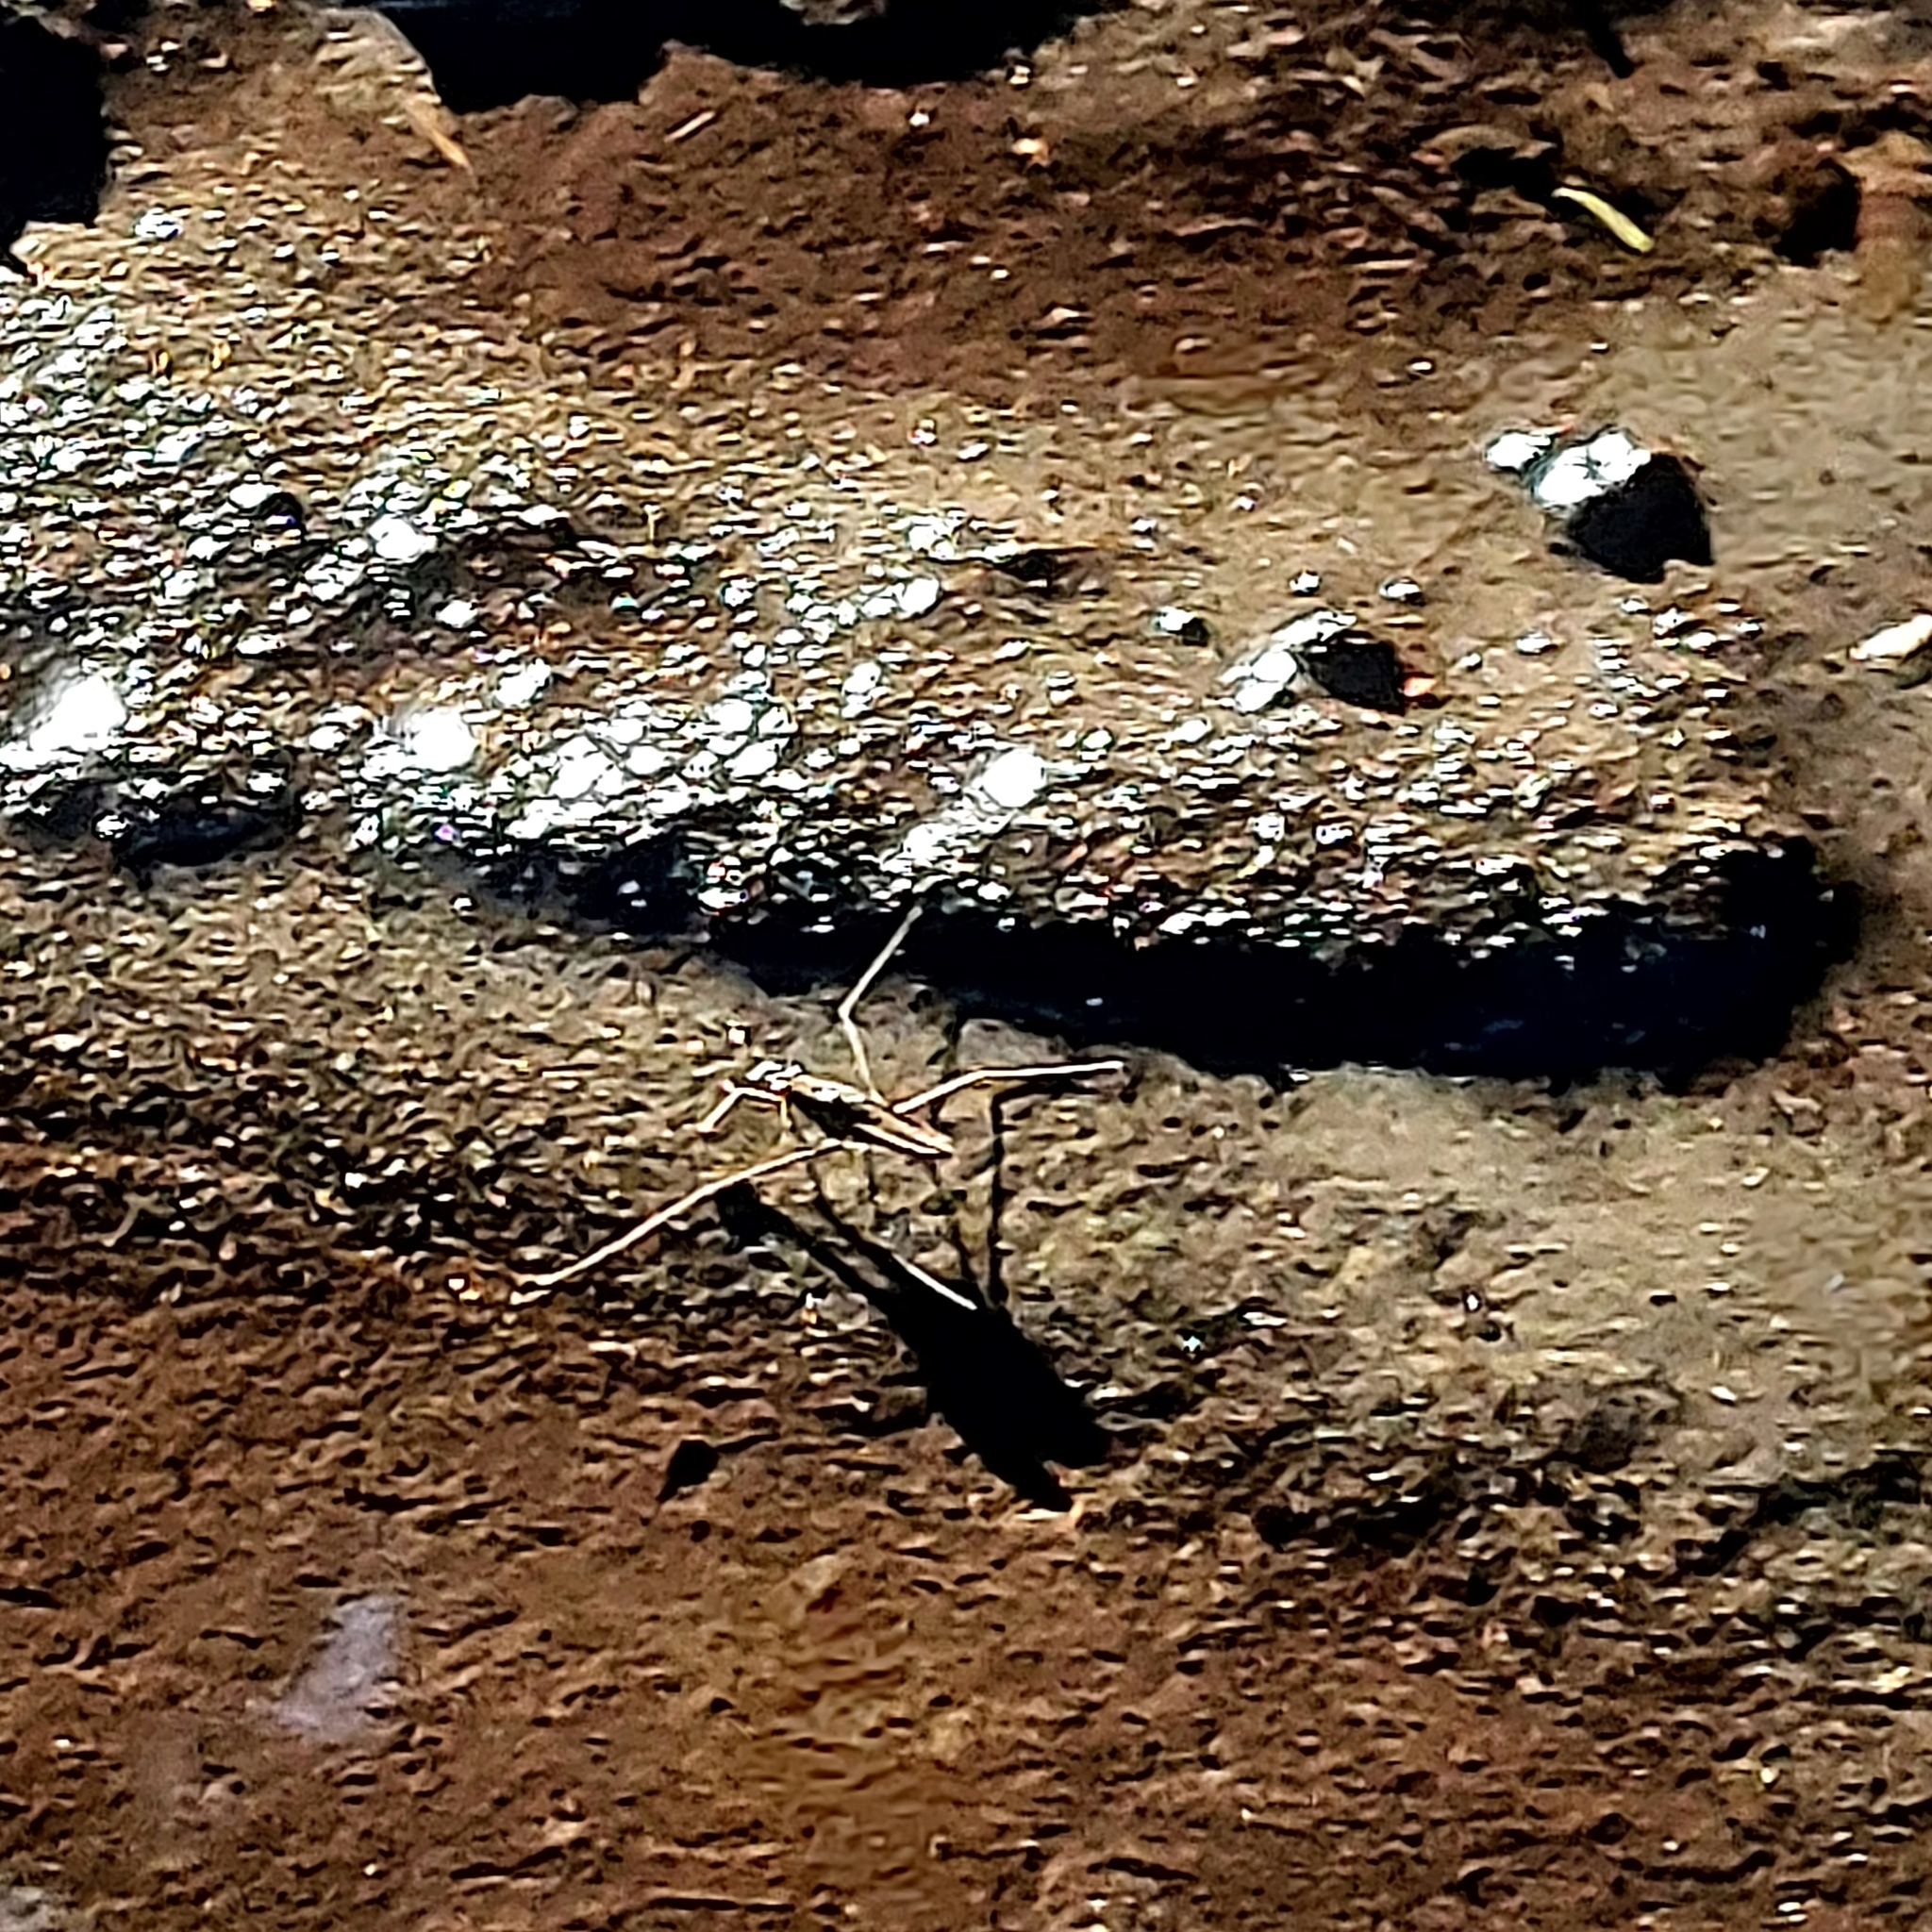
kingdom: Animalia
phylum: Arthropoda
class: Insecta
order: Hemiptera
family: Gerridae
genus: Aquarius
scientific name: Aquarius remigis
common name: Common water strider
